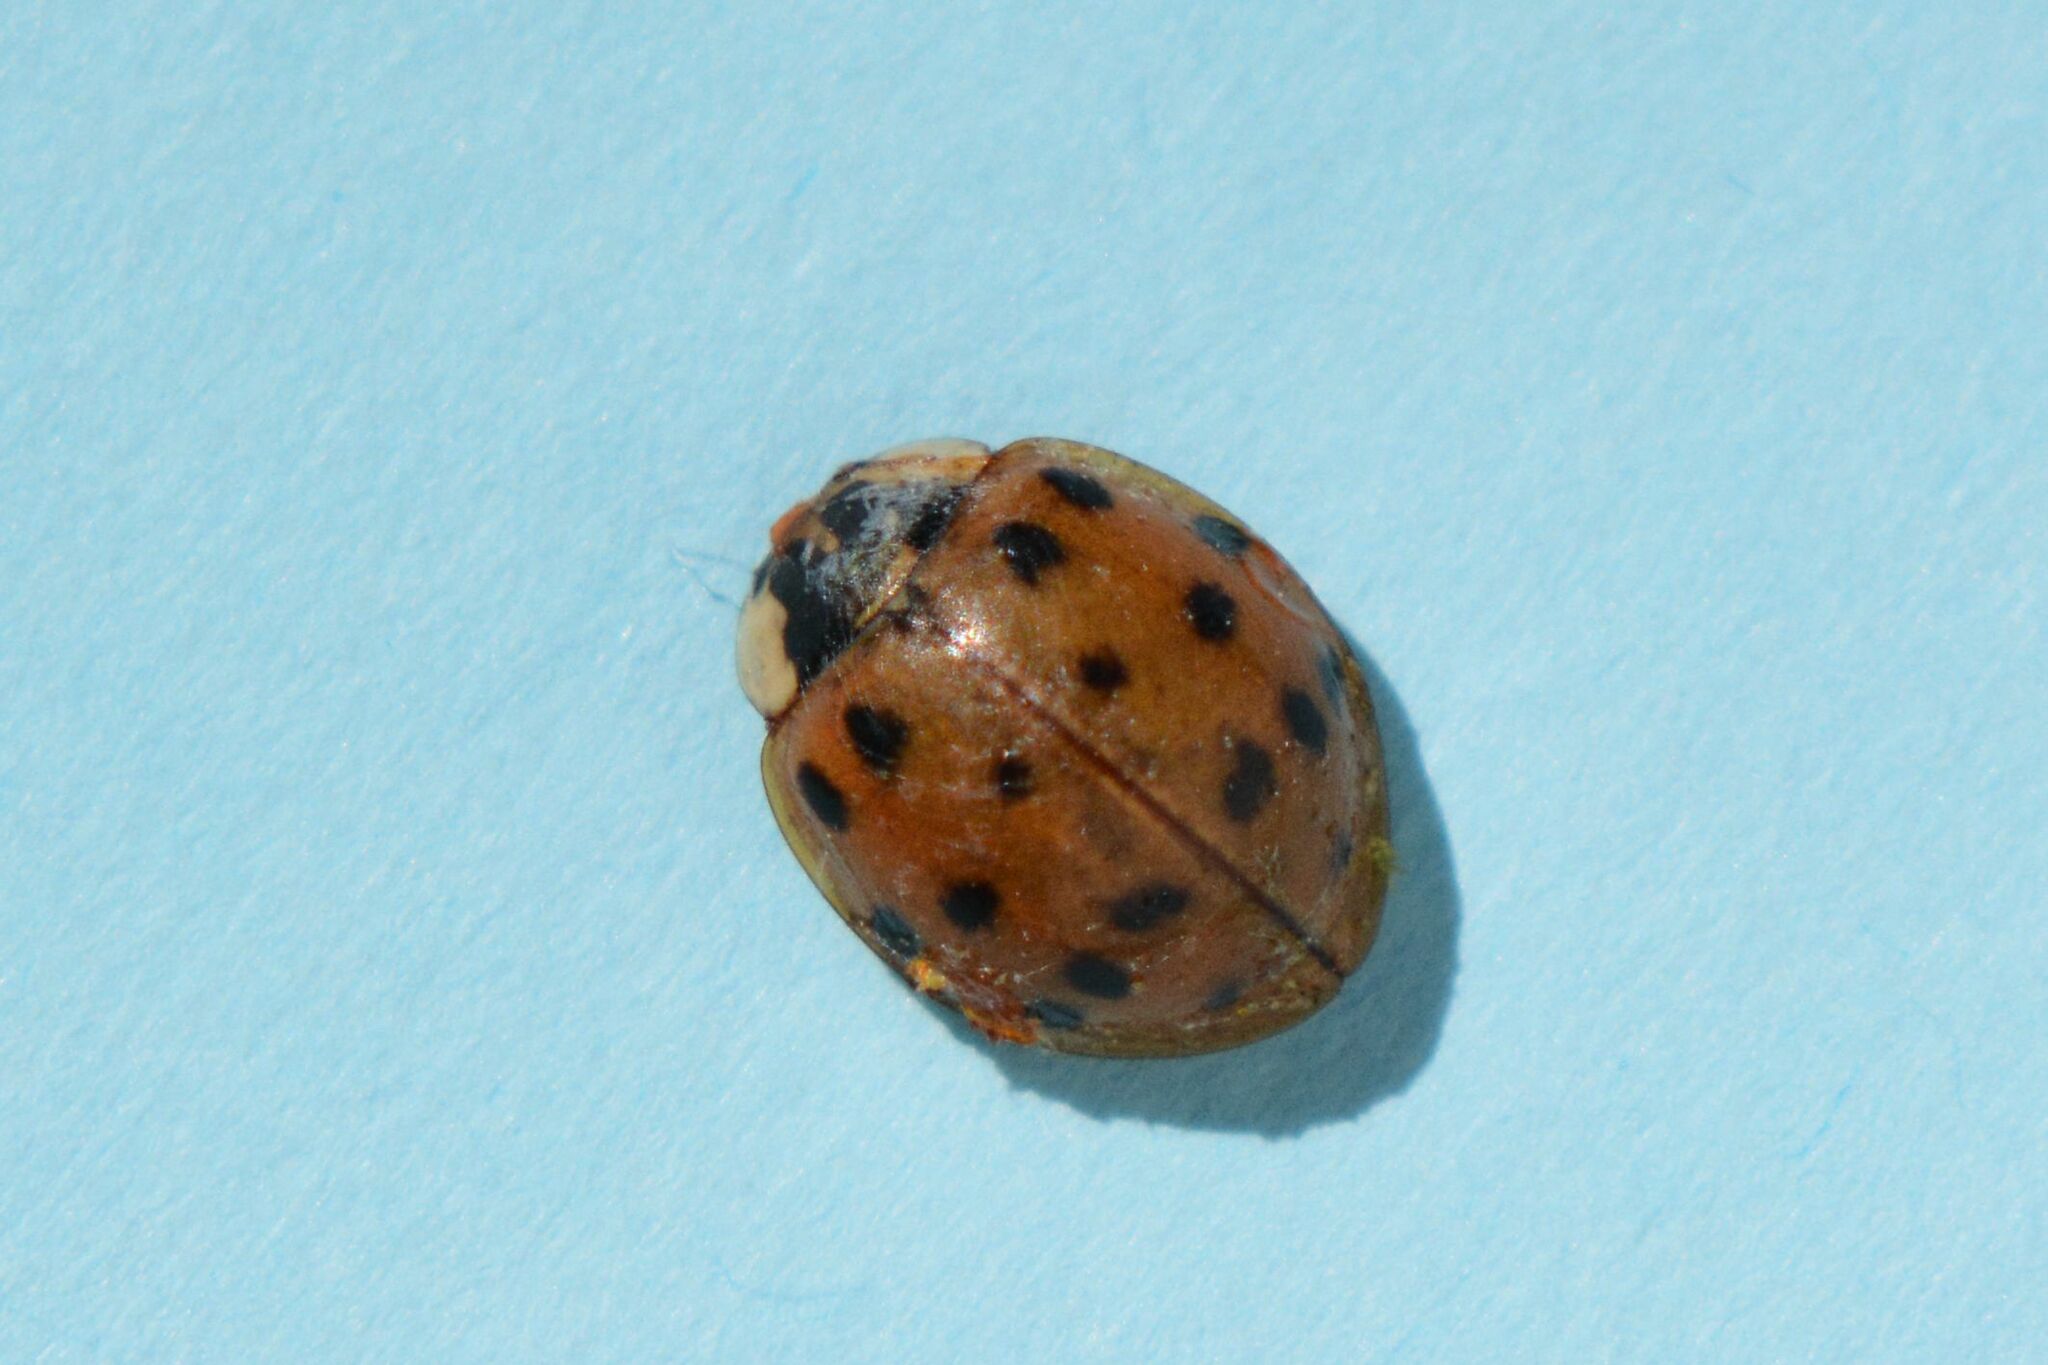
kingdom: Animalia
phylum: Arthropoda
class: Insecta
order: Coleoptera
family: Coccinellidae
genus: Harmonia
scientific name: Harmonia axyridis
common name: Harlequin ladybird
